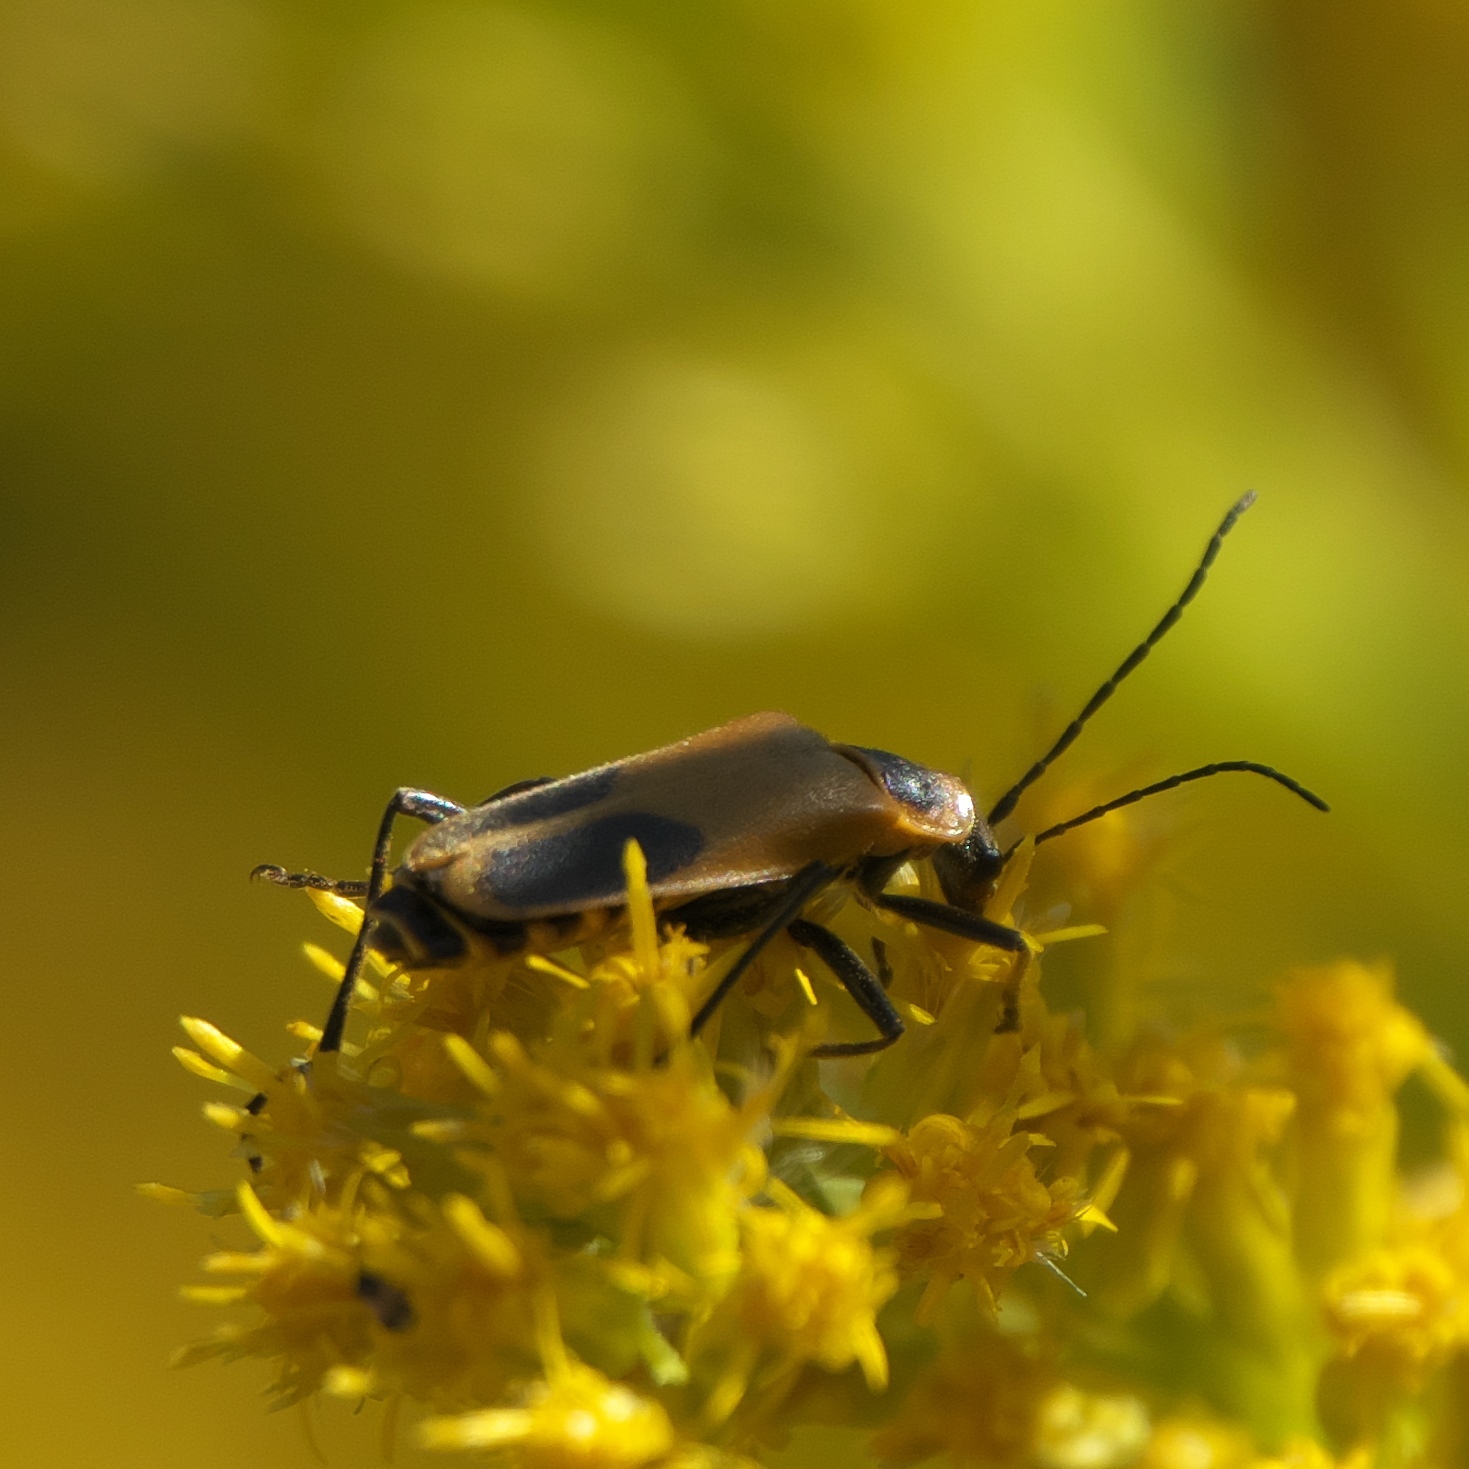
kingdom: Animalia
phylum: Arthropoda
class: Insecta
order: Coleoptera
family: Cantharidae
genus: Chauliognathus
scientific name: Chauliognathus pensylvanicus
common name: Goldenrod soldier beetle
